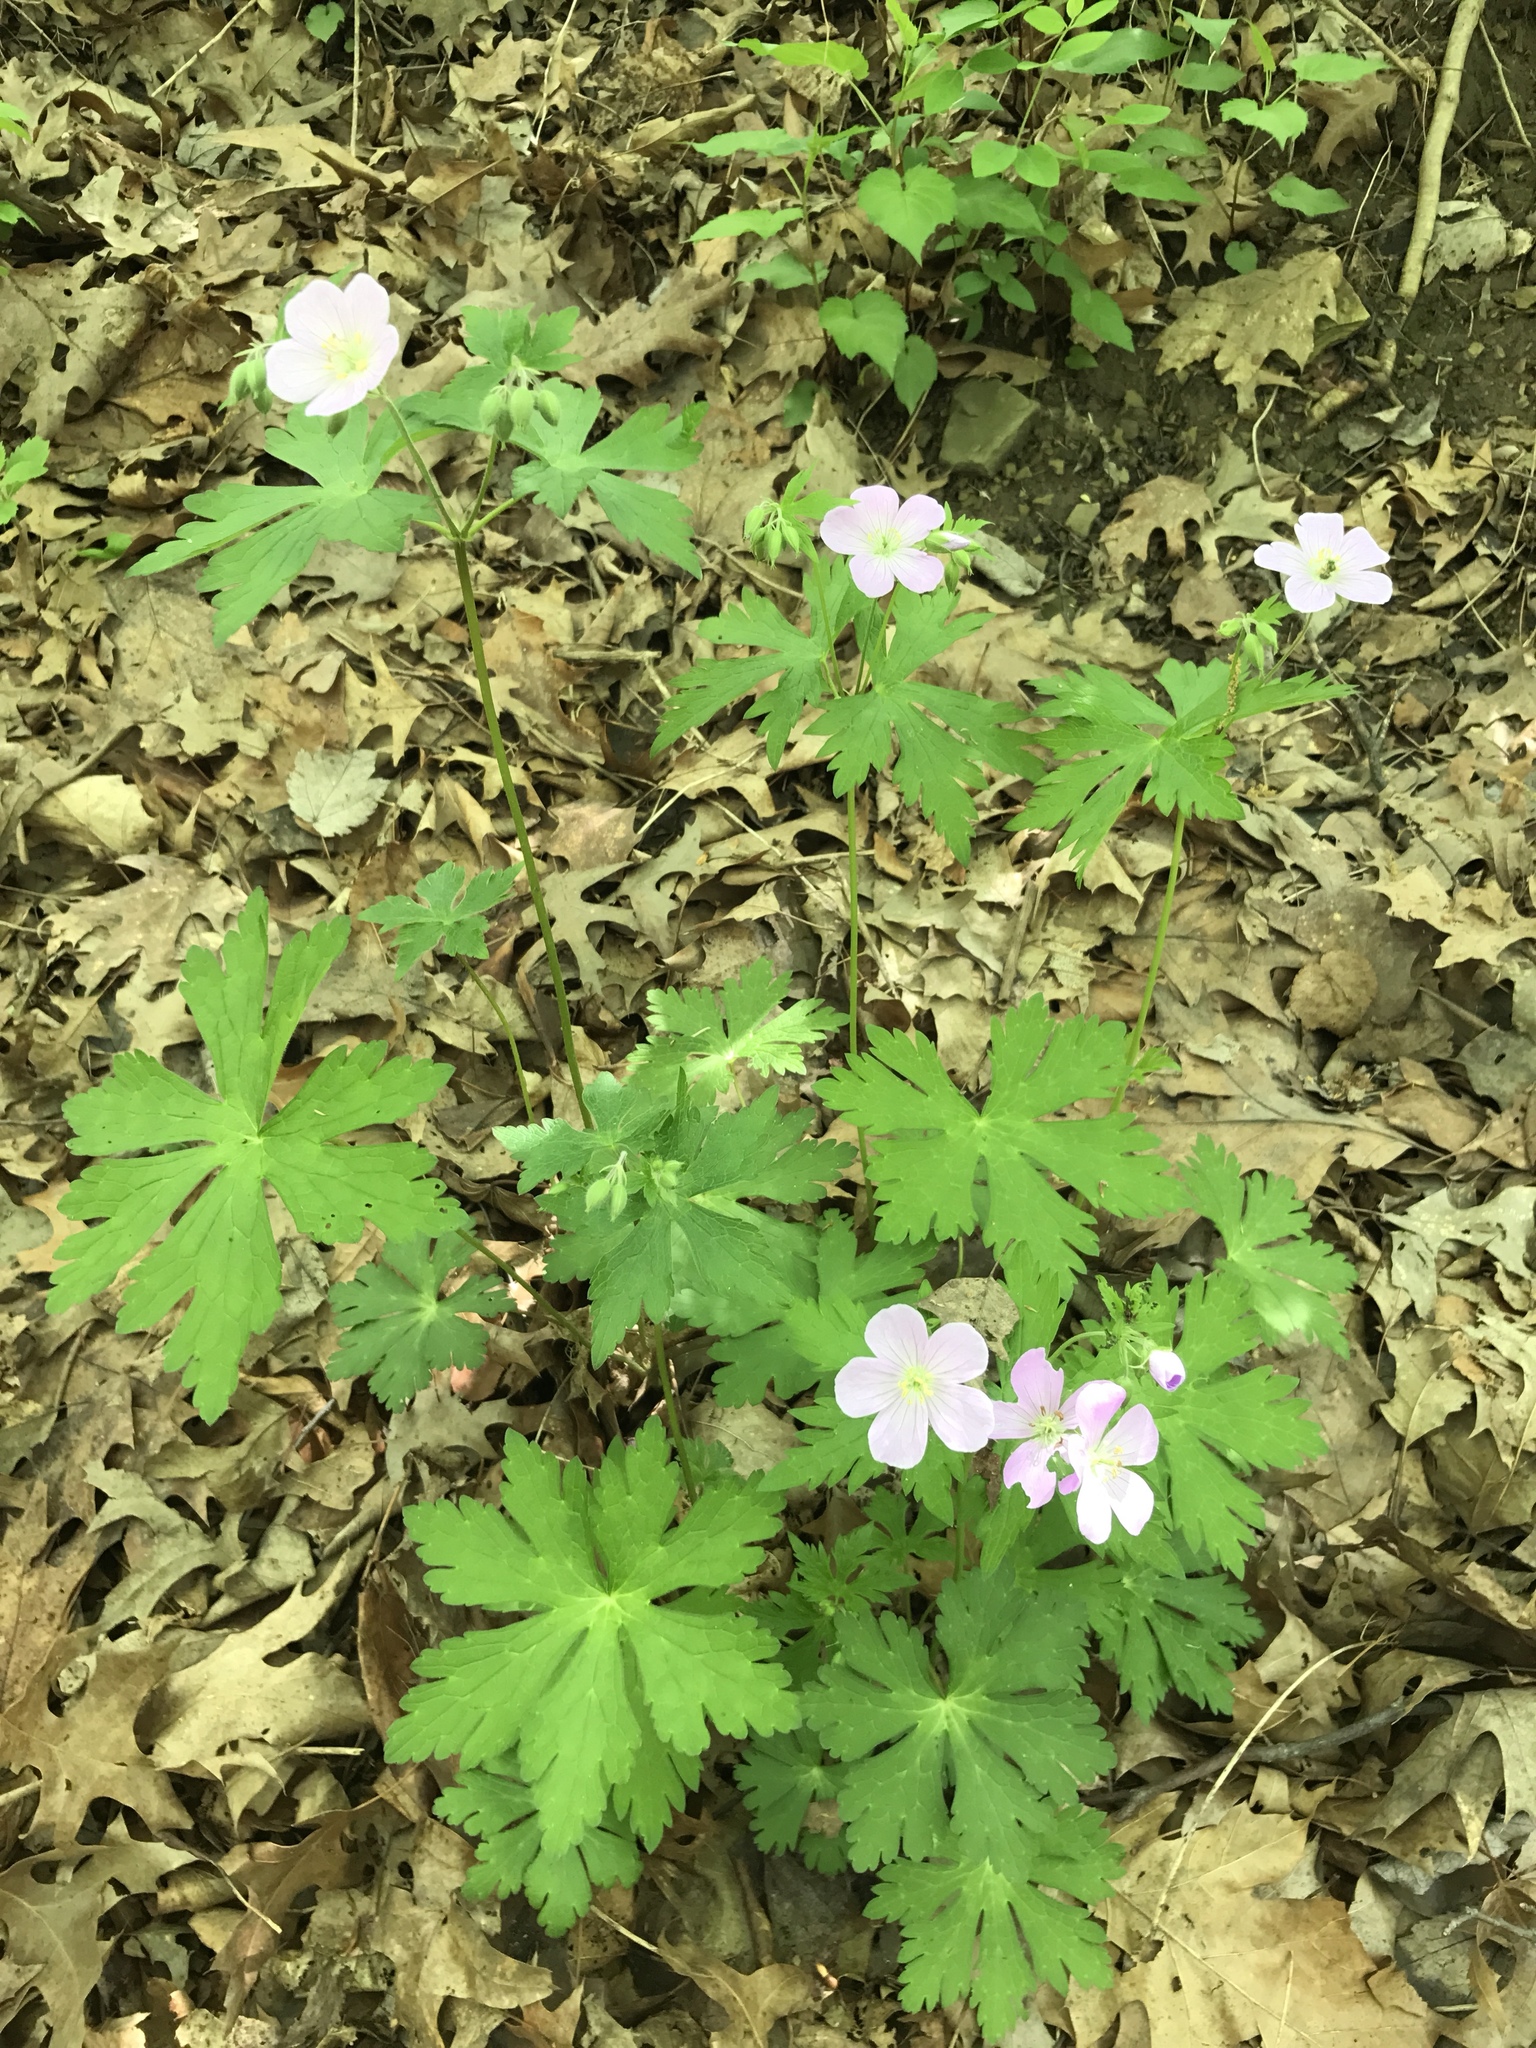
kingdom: Plantae
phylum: Tracheophyta
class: Magnoliopsida
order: Geraniales
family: Geraniaceae
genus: Geranium
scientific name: Geranium maculatum
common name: Spotted geranium
